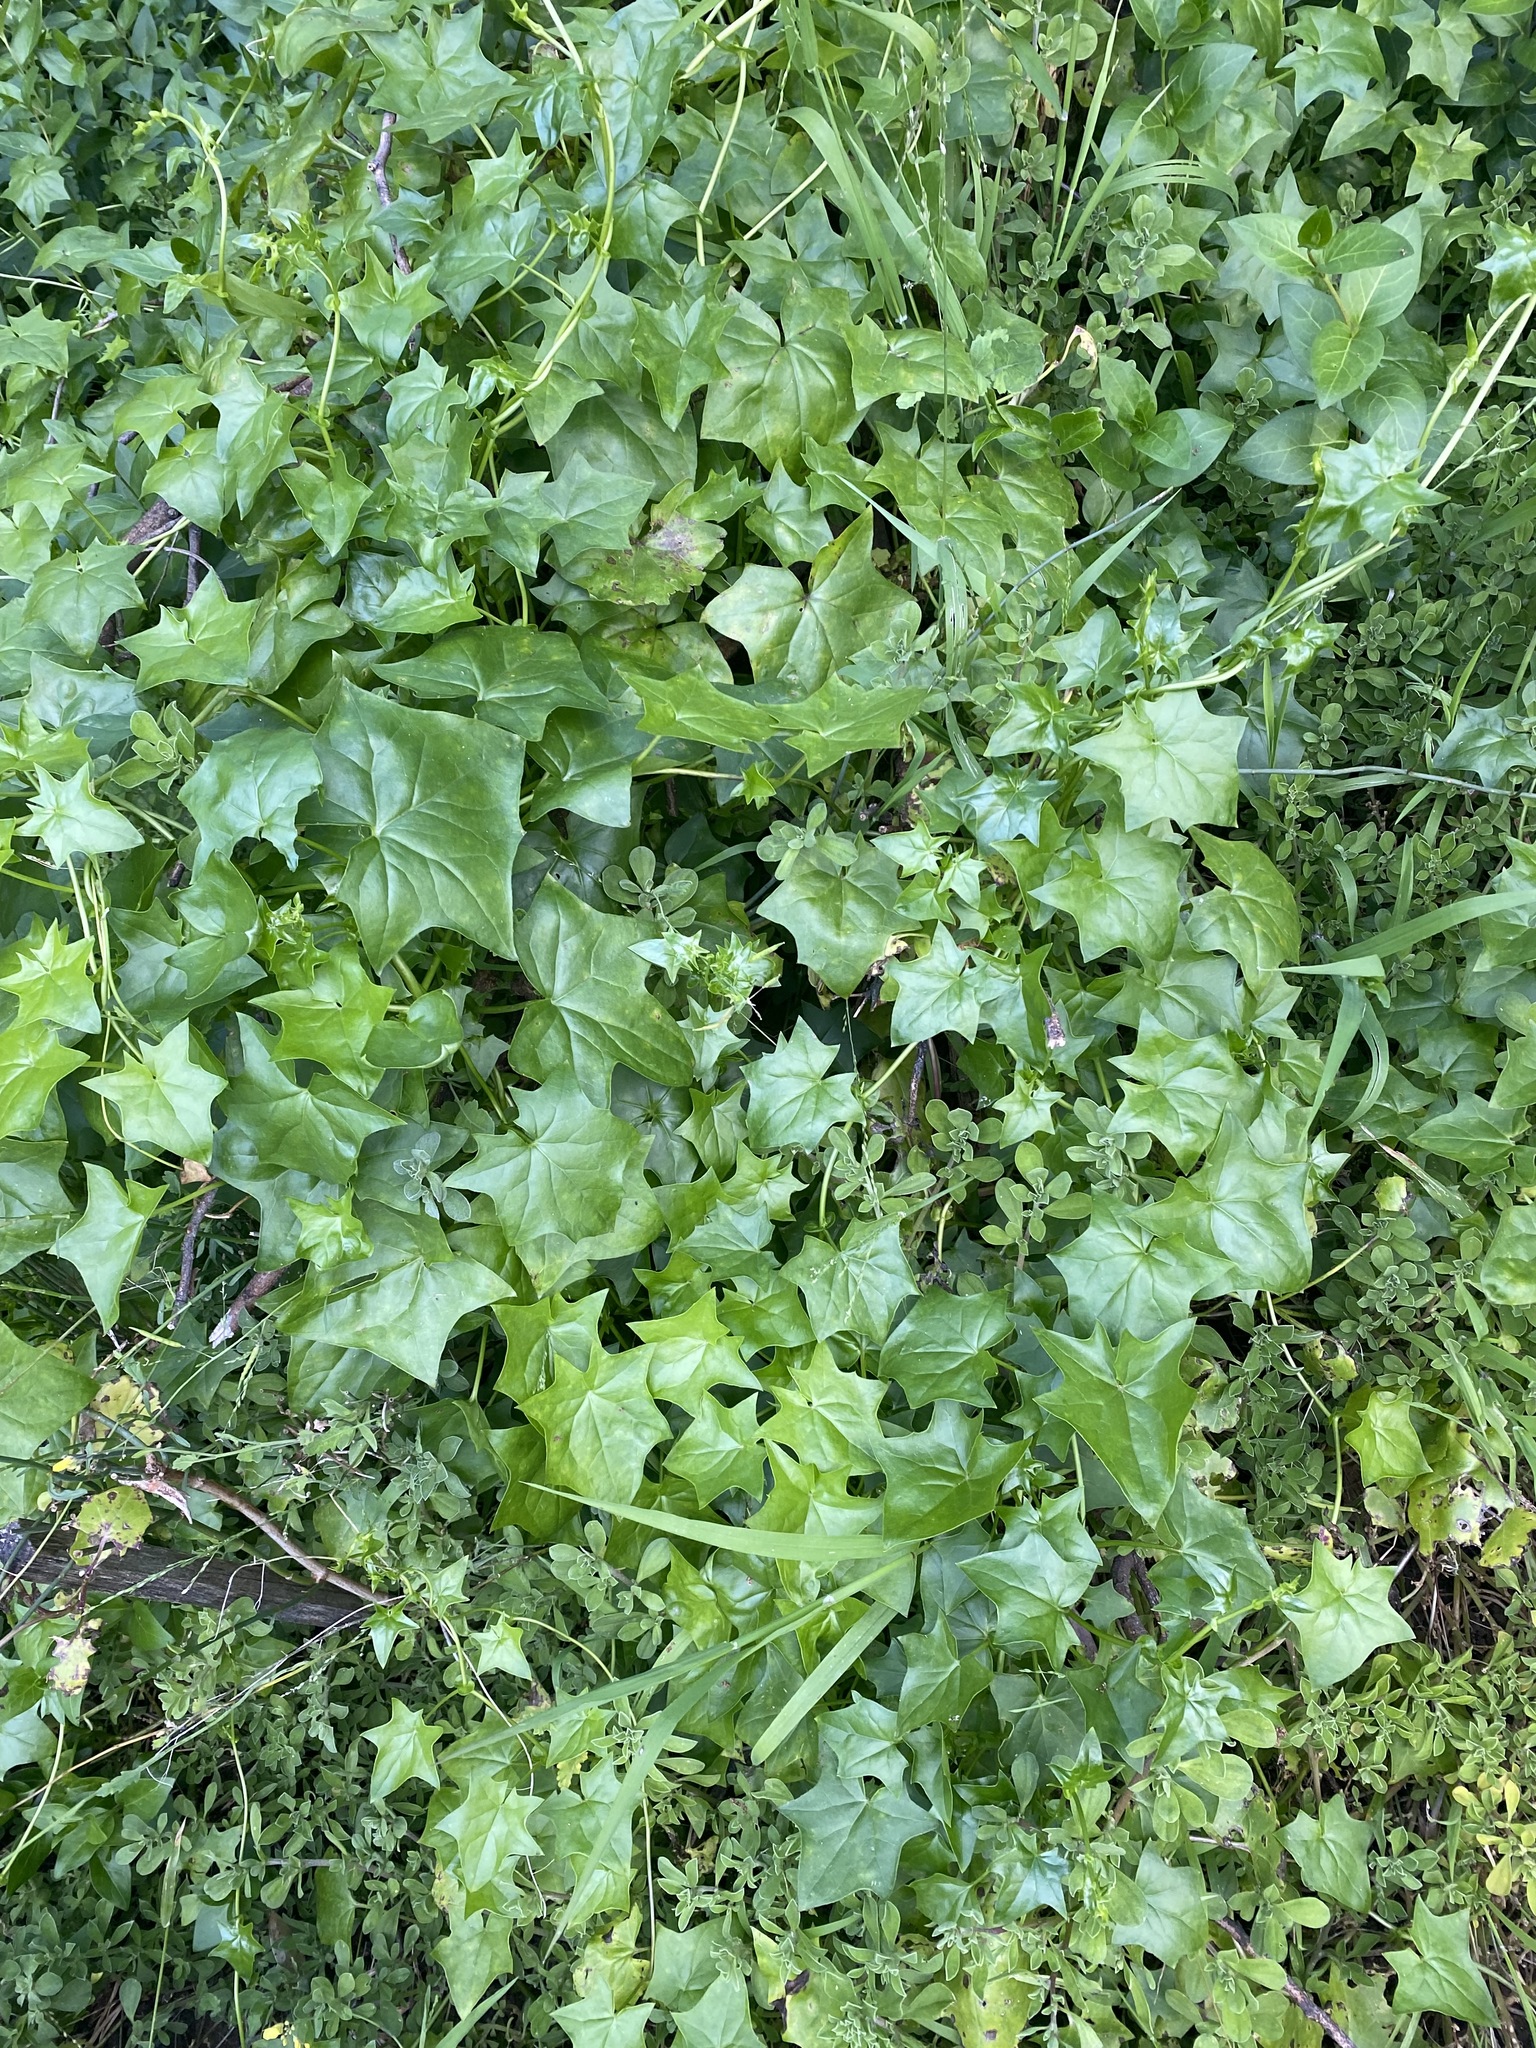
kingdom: Plantae
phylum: Tracheophyta
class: Magnoliopsida
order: Asterales
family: Asteraceae
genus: Delairea
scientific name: Delairea odorata
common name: Cape-ivy
